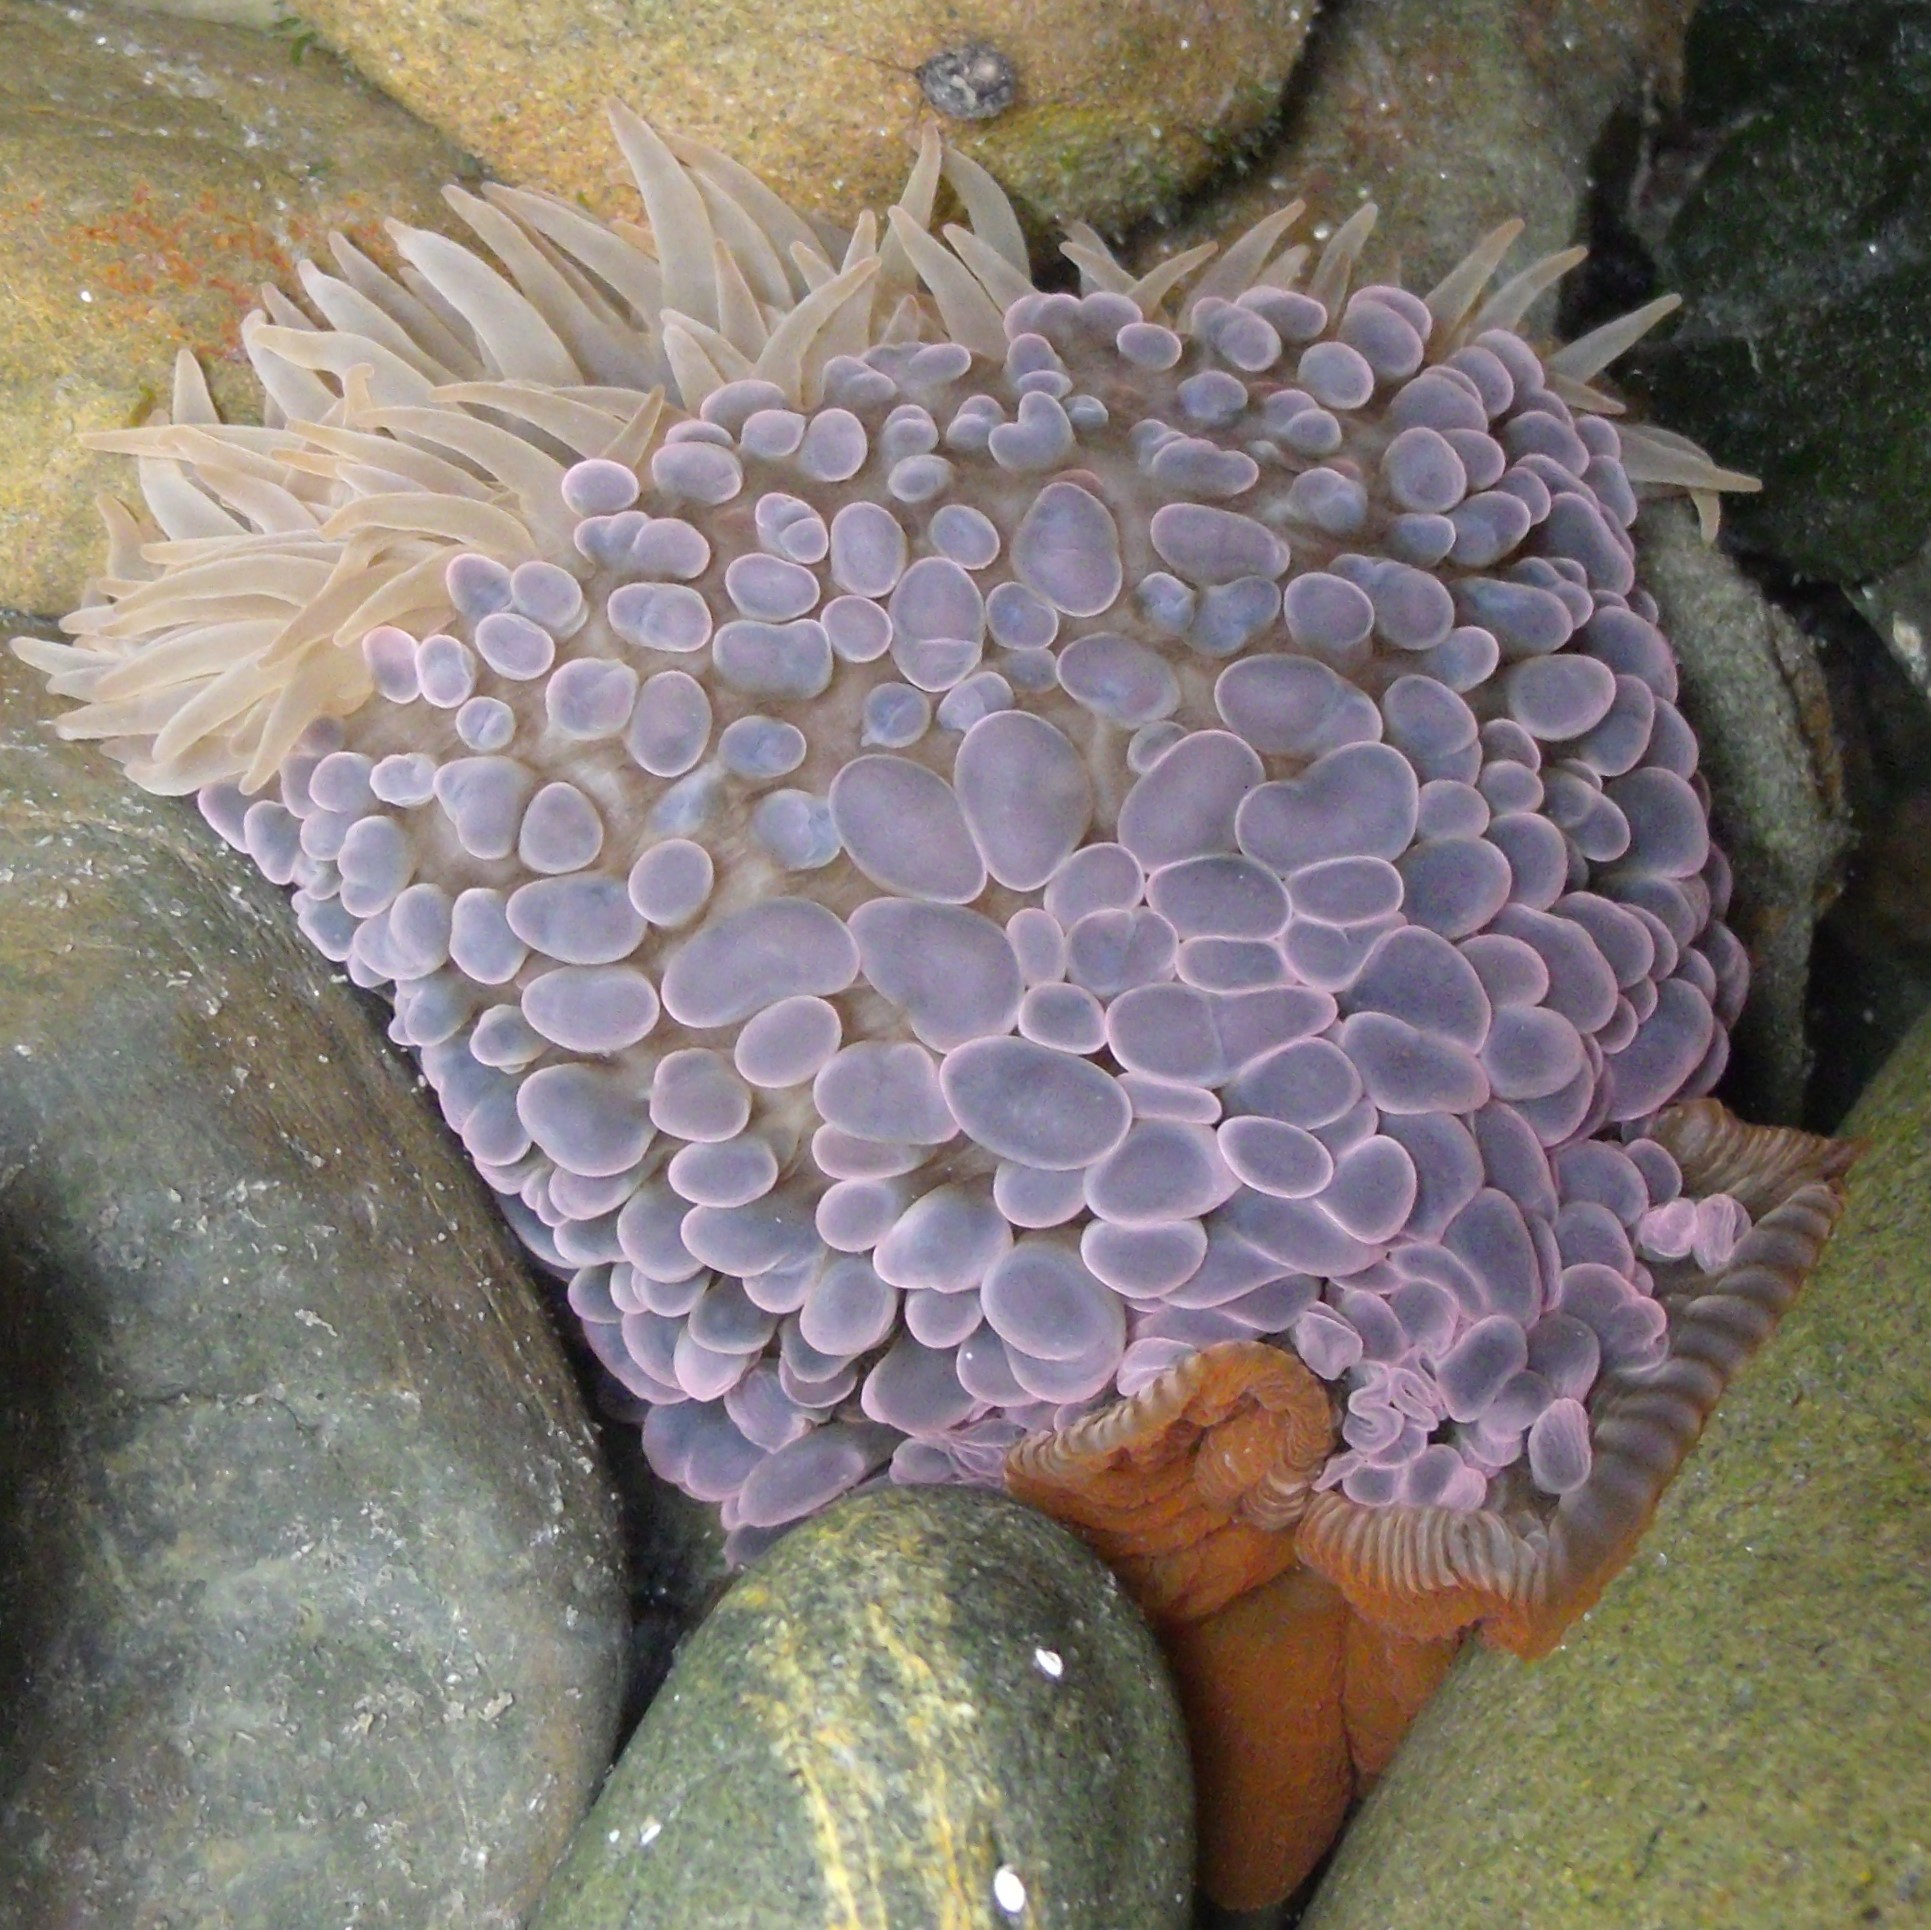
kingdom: Animalia
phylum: Cnidaria
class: Anthozoa
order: Actiniaria
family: Actiniidae
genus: Phlyctenactis
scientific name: Phlyctenactis tuberculosa
